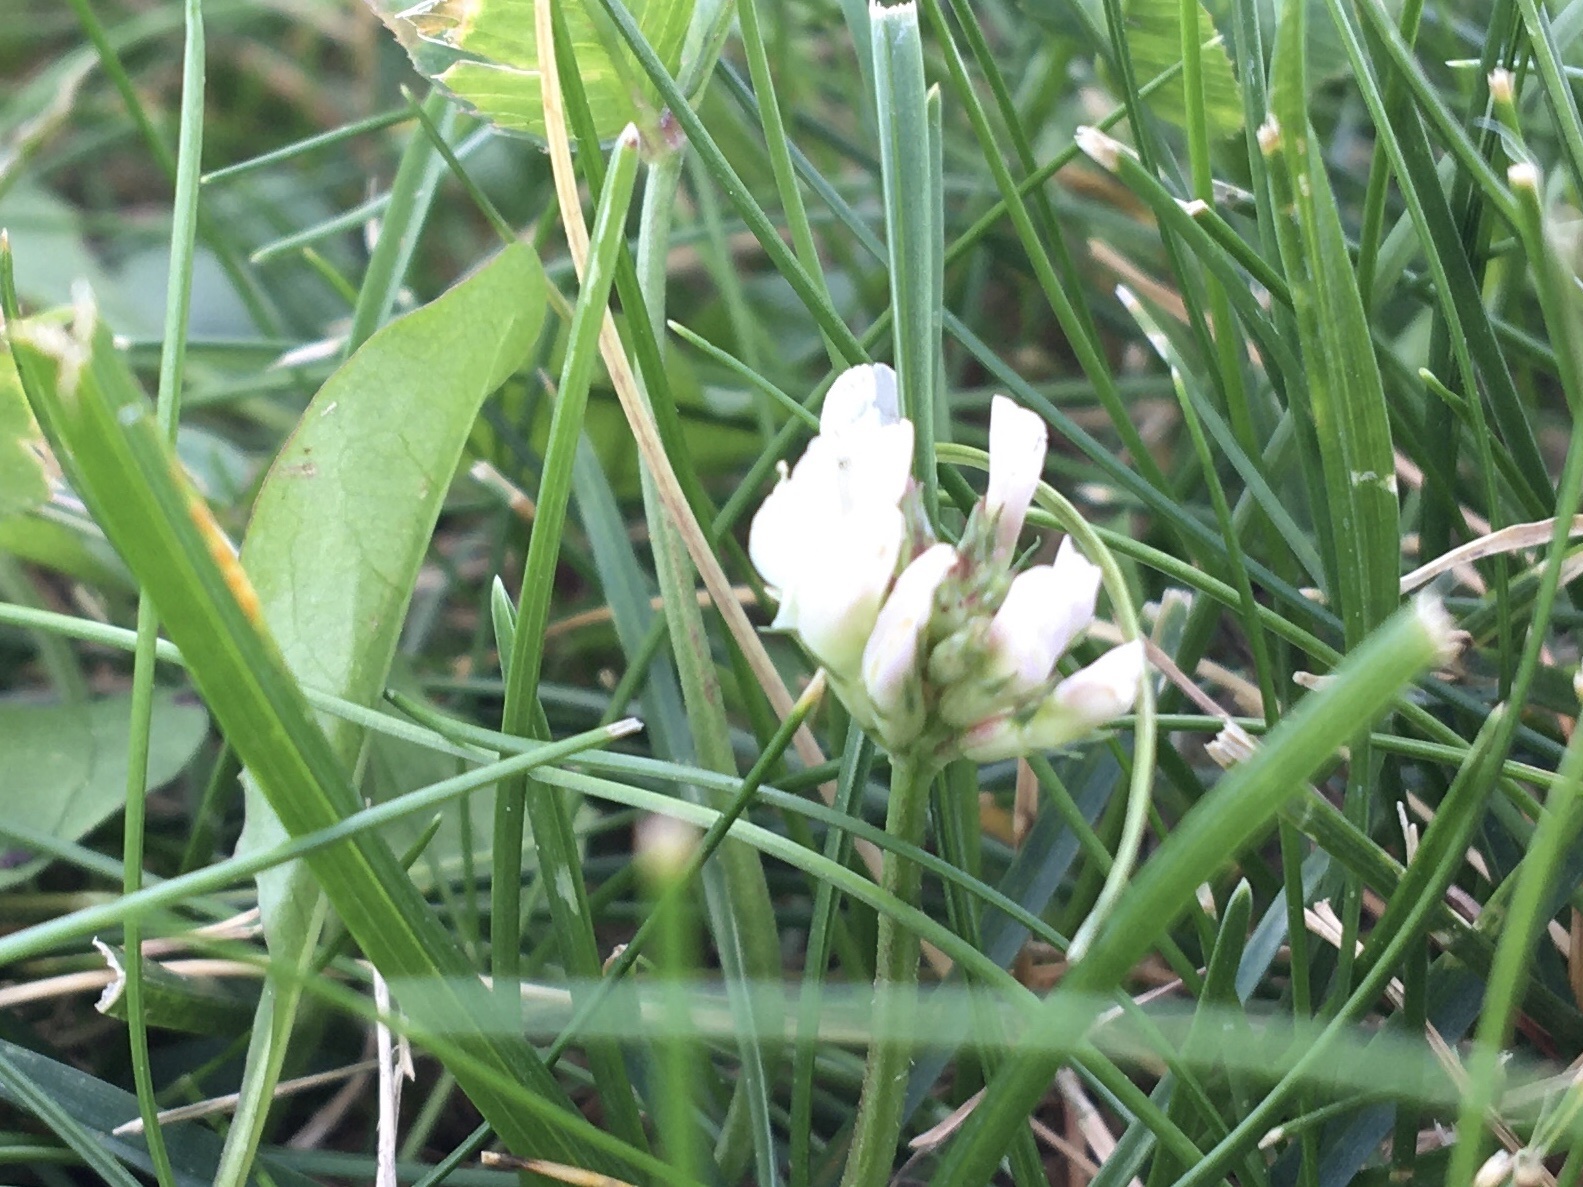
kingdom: Plantae
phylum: Tracheophyta
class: Magnoliopsida
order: Fabales
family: Fabaceae
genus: Trifolium
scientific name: Trifolium repens
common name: White clover
